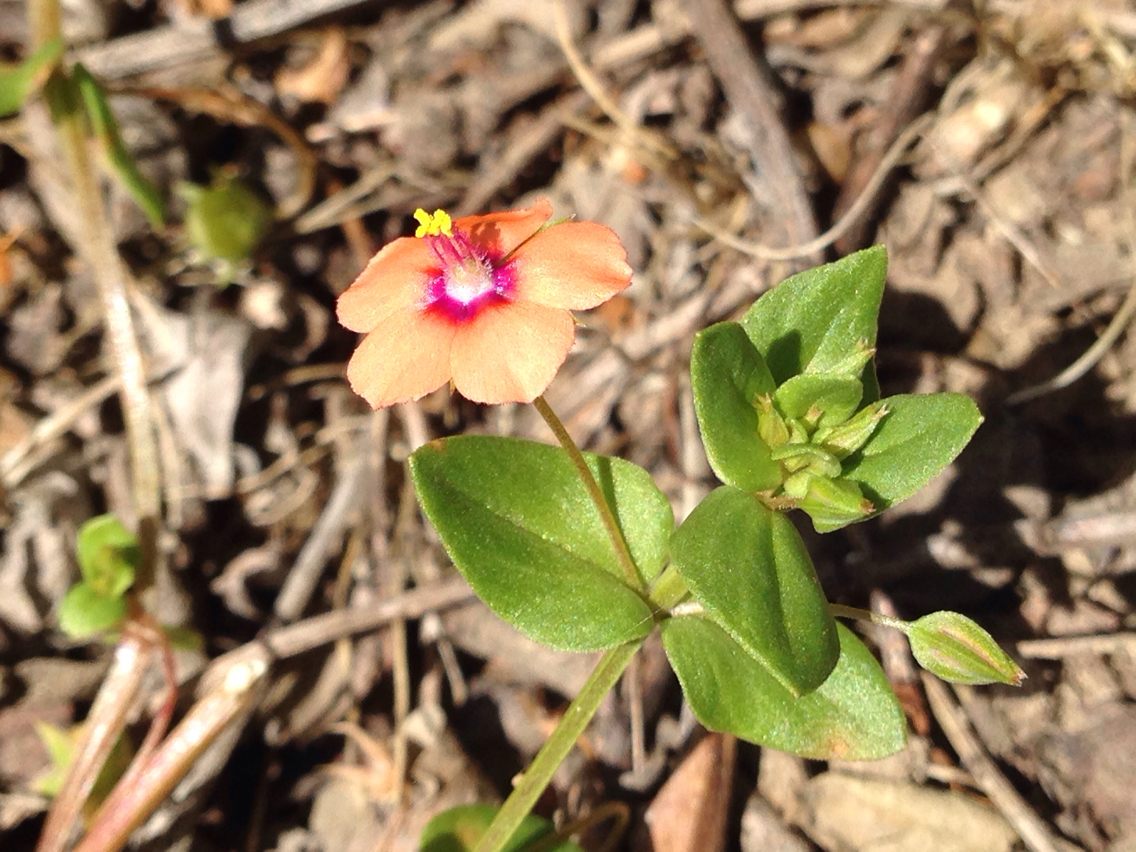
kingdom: Plantae
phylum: Tracheophyta
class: Magnoliopsida
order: Ericales
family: Primulaceae
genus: Lysimachia
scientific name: Lysimachia arvensis
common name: Scarlet pimpernel
